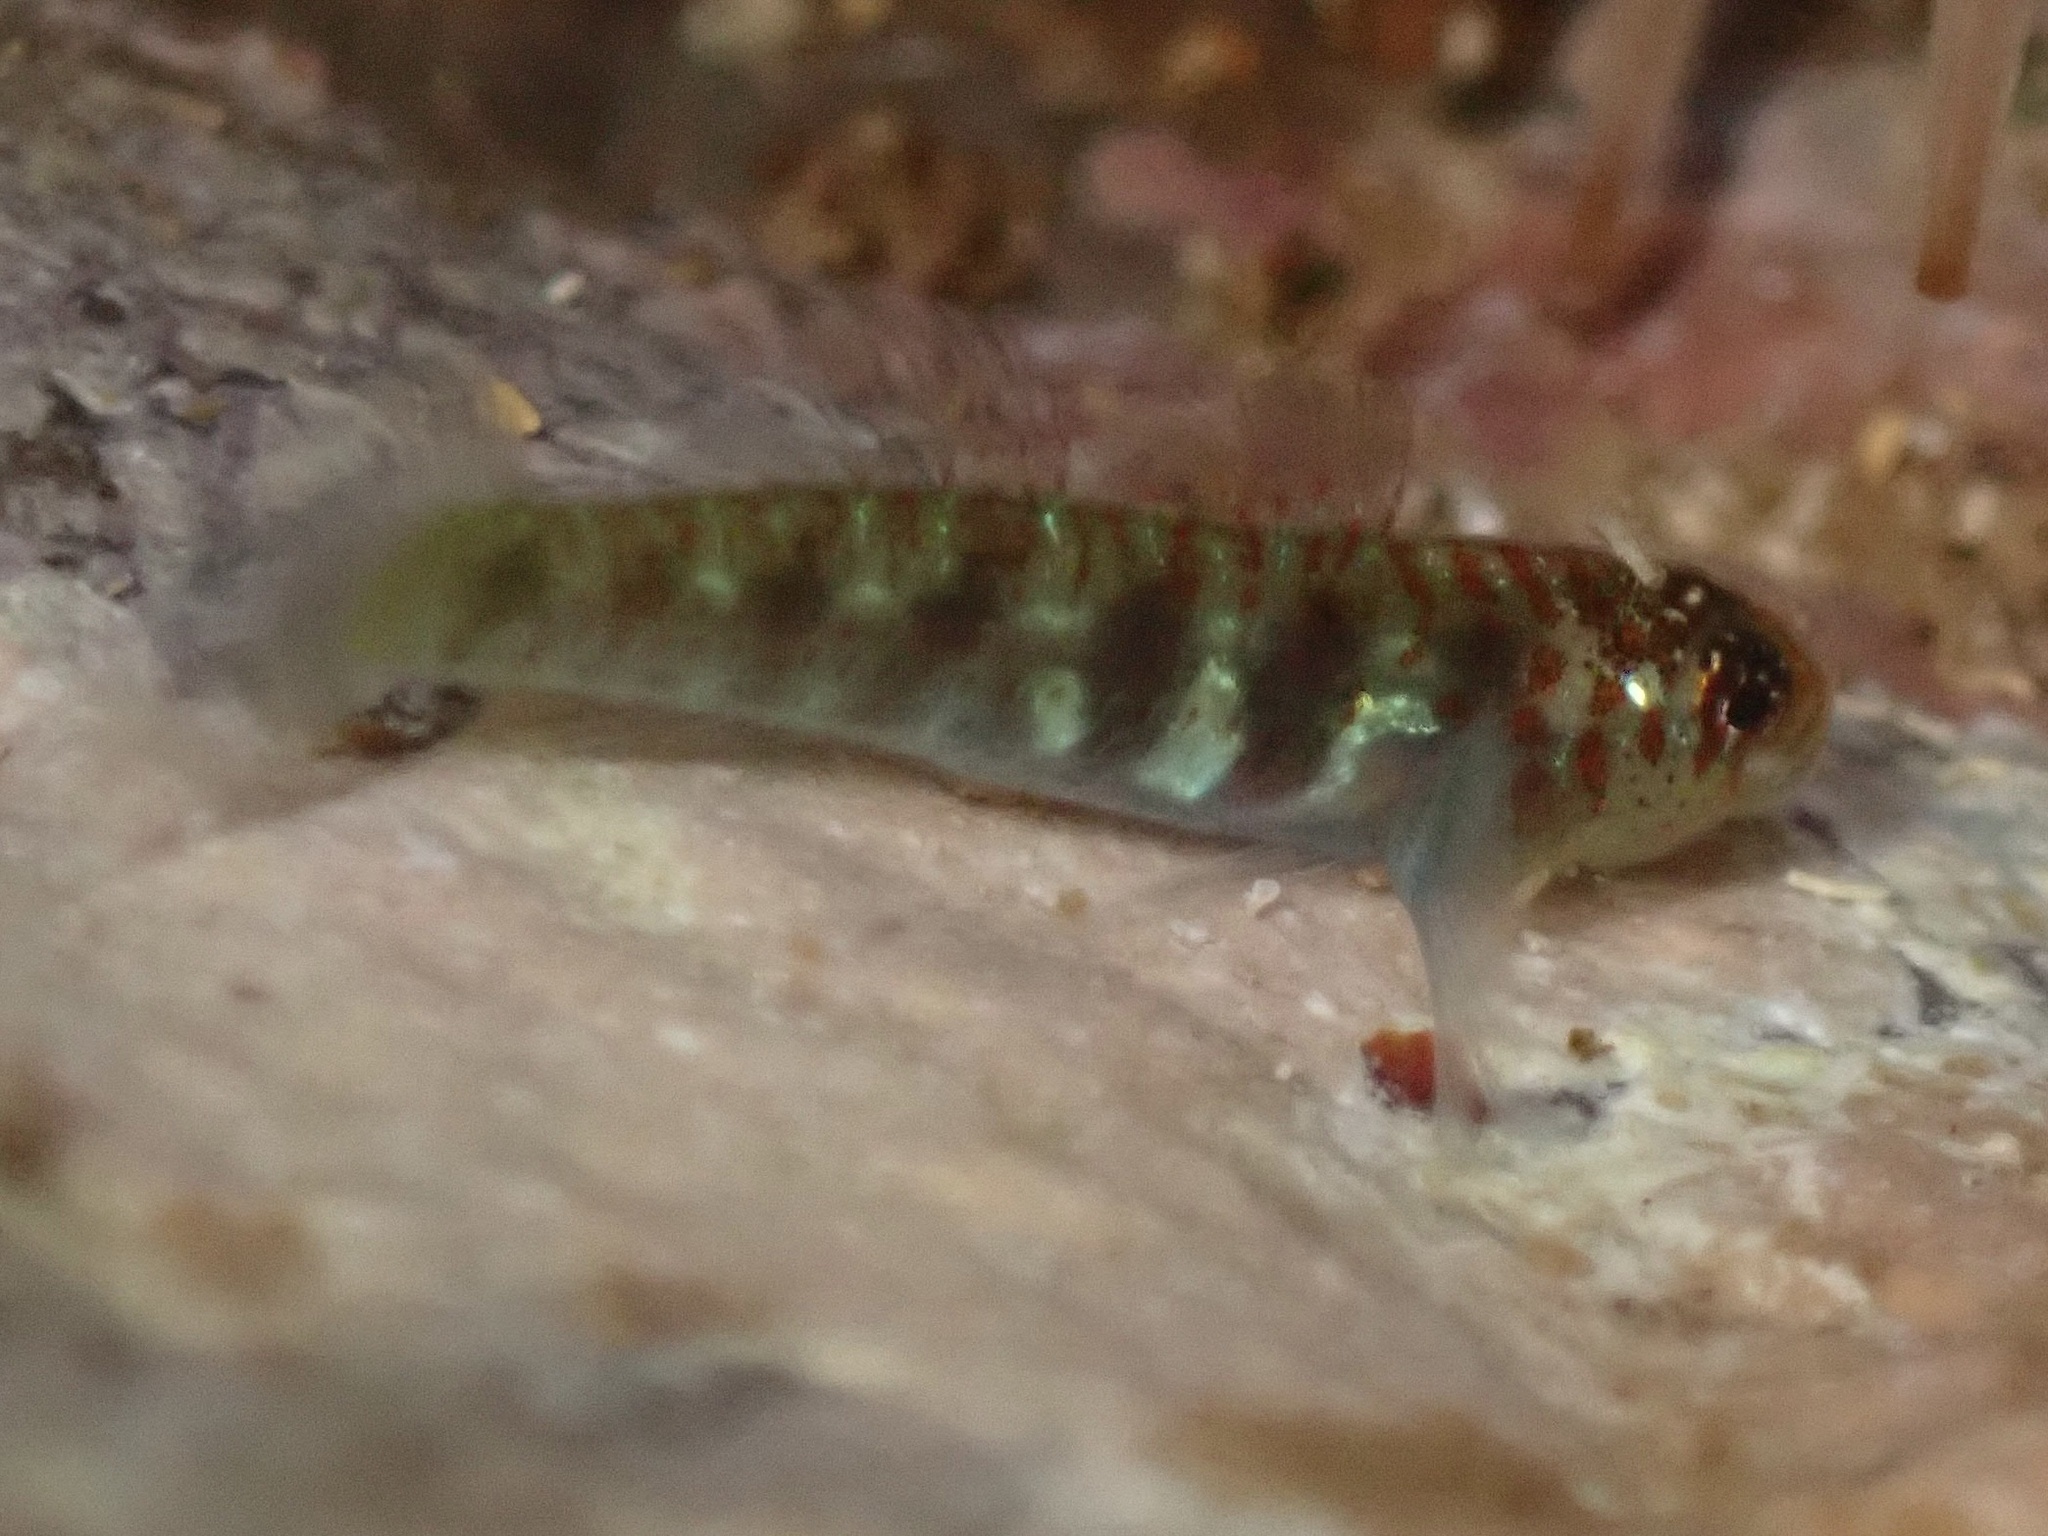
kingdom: Animalia
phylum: Chordata
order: Perciformes
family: Gobiidae
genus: Eviota
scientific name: Eviota epiphanes
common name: Divine dwarf goby
